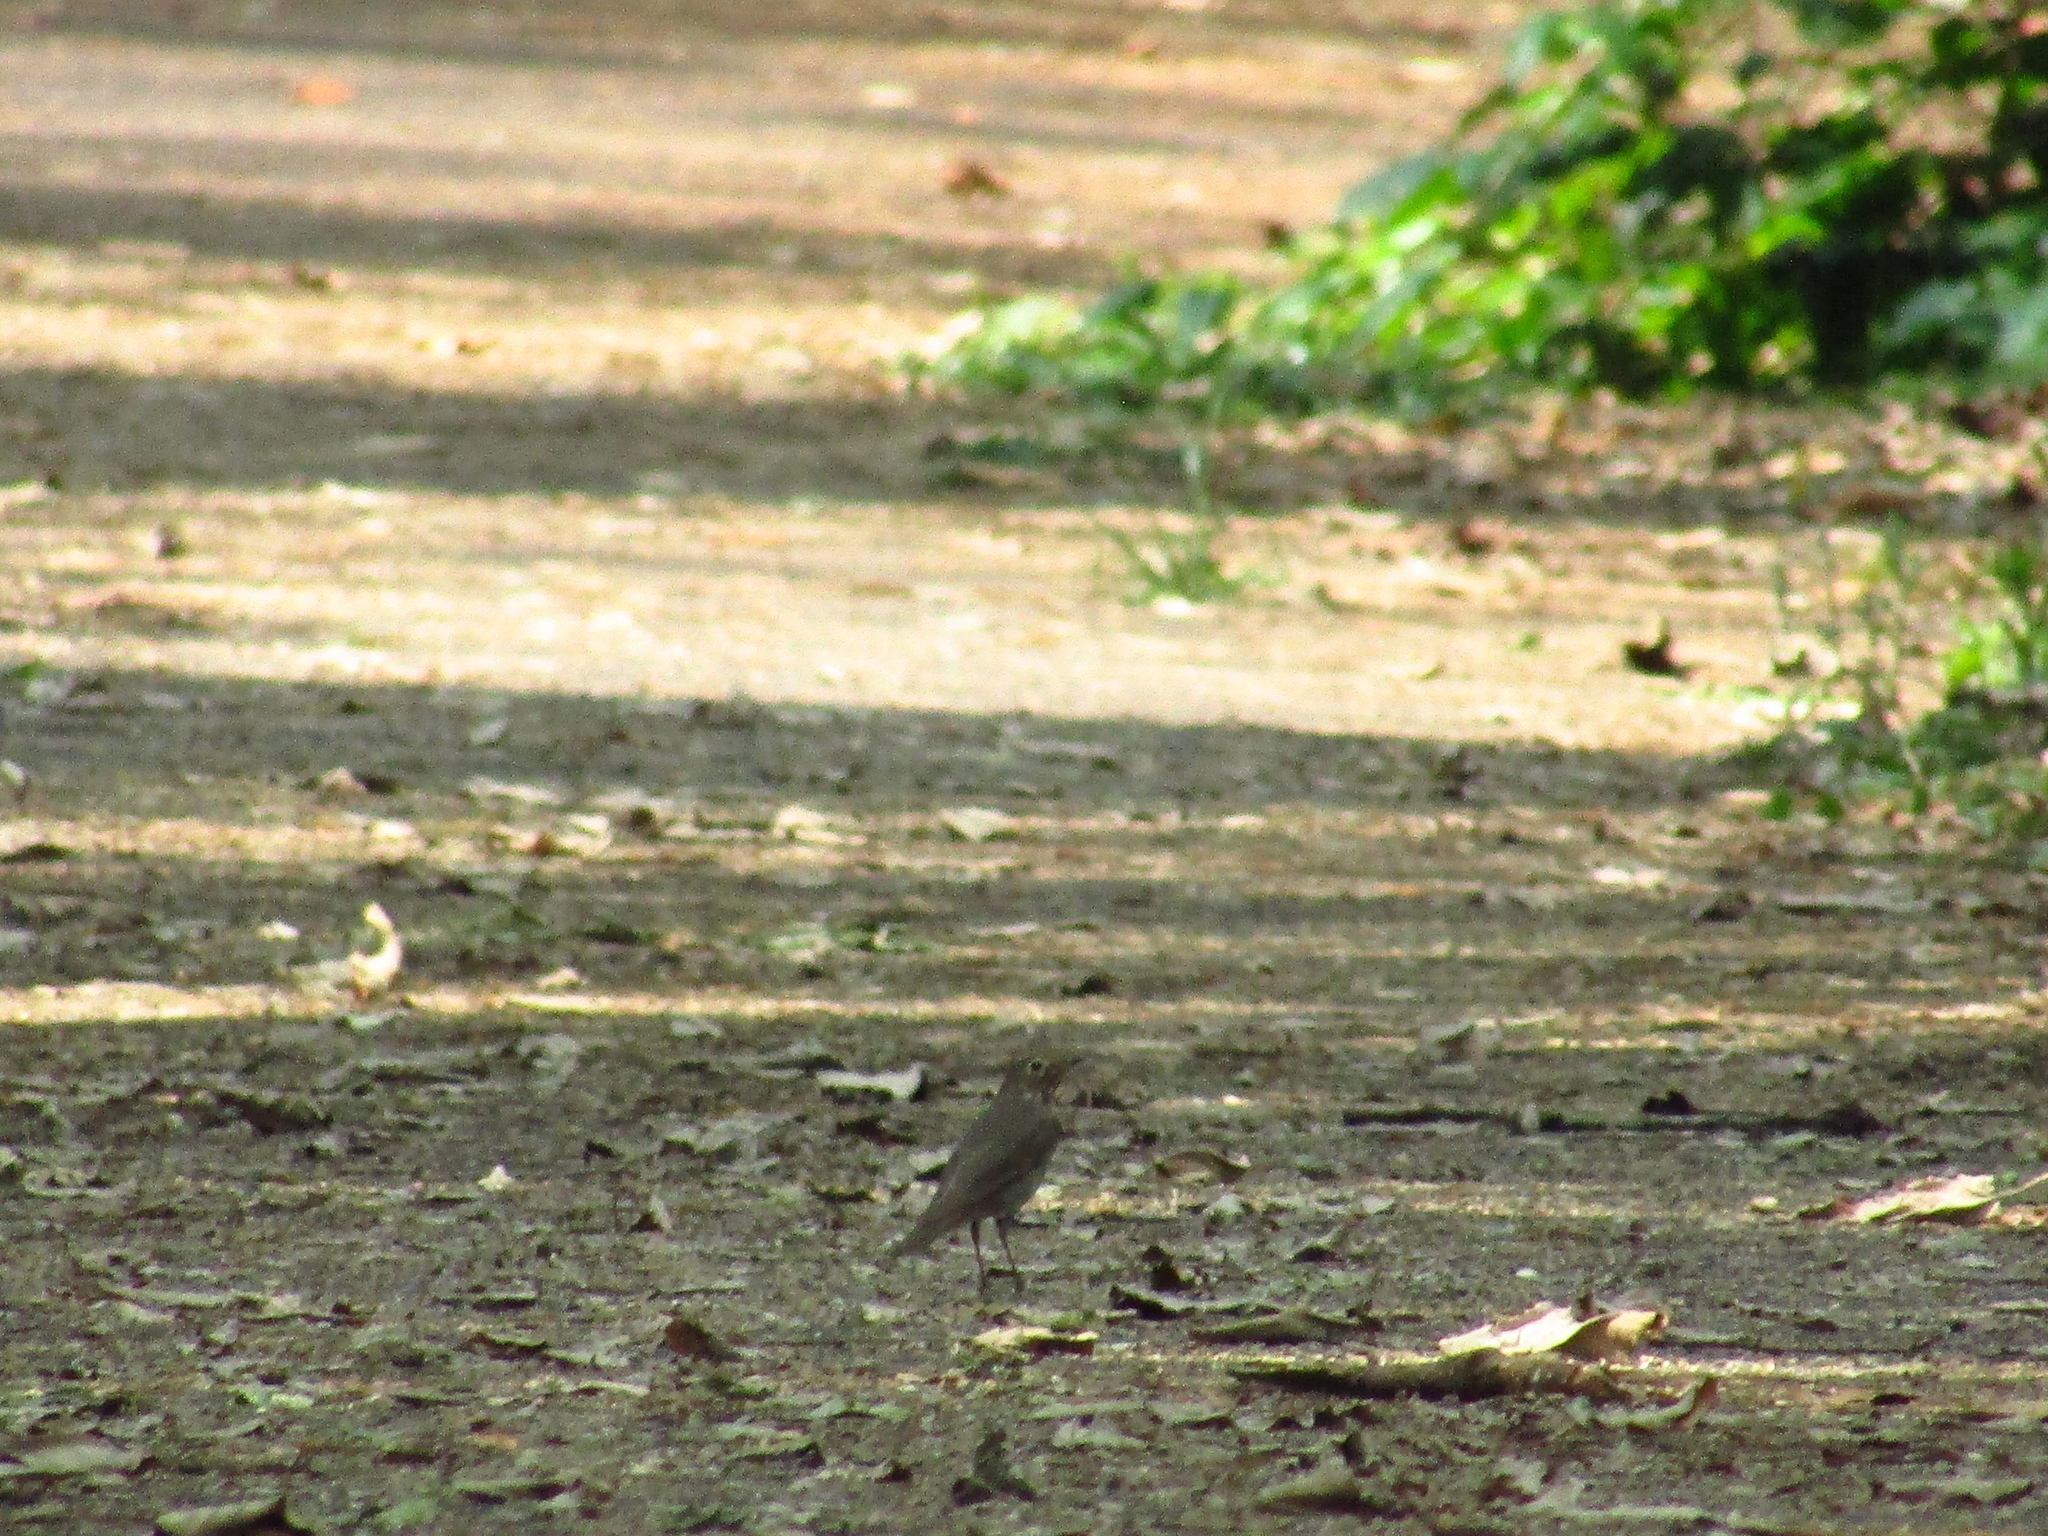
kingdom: Animalia
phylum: Chordata
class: Aves
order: Passeriformes
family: Turdidae
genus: Catharus
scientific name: Catharus ustulatus
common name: Swainson's thrush
